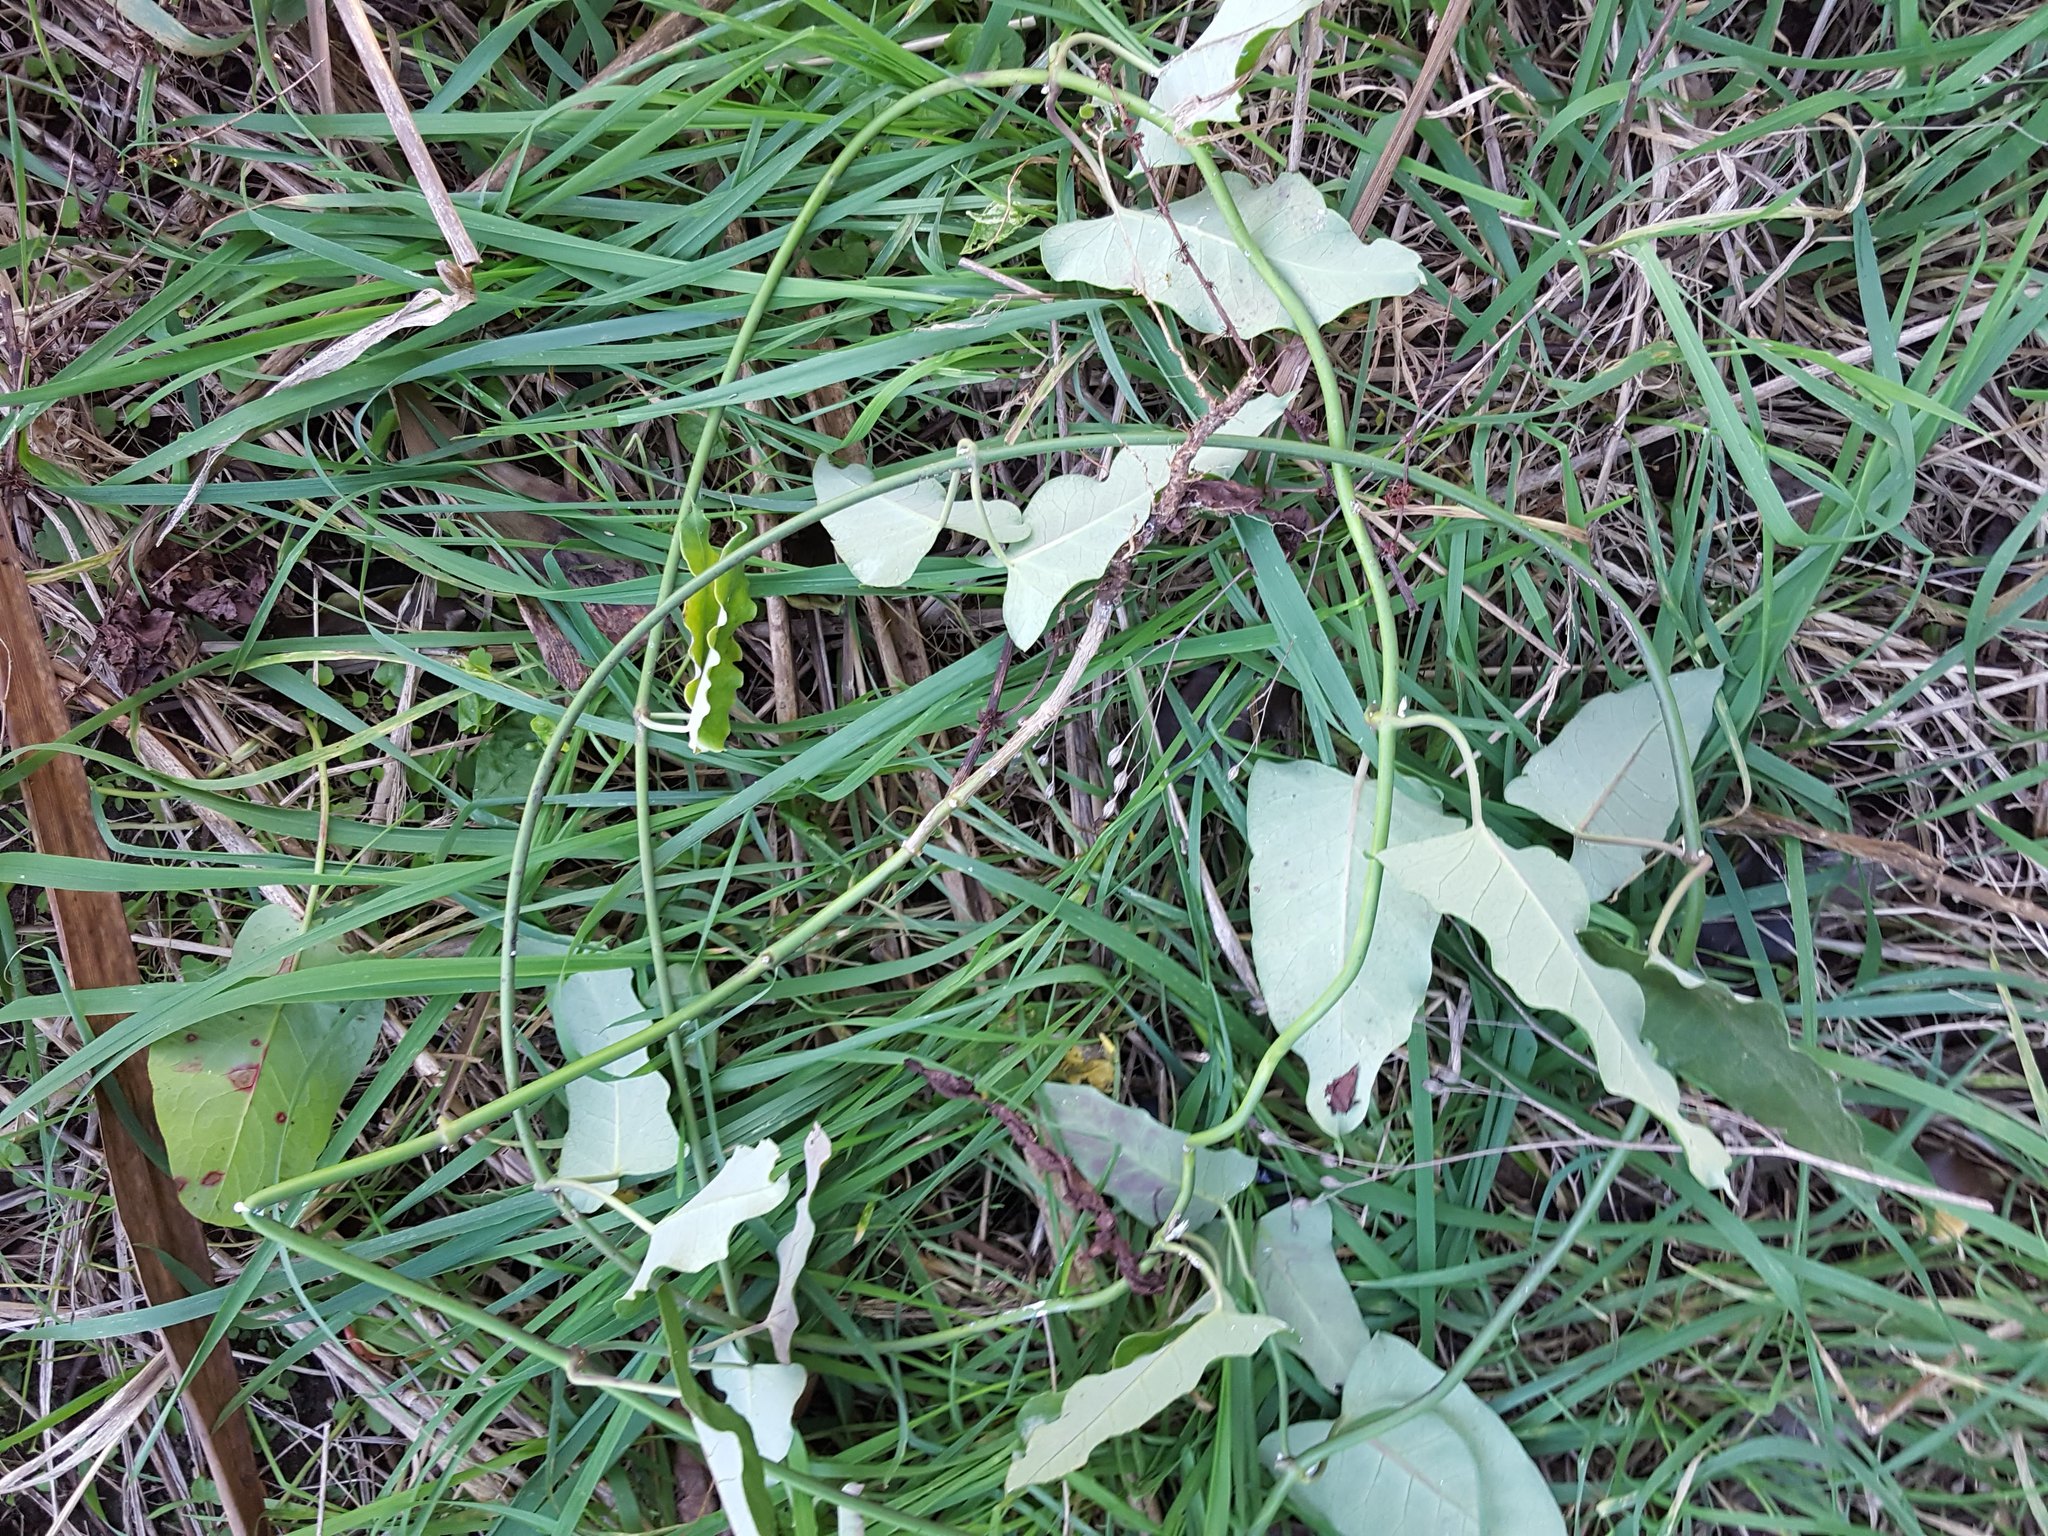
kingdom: Plantae
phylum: Tracheophyta
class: Magnoliopsida
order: Gentianales
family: Apocynaceae
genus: Araujia
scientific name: Araujia sericifera
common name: White bladderflower
